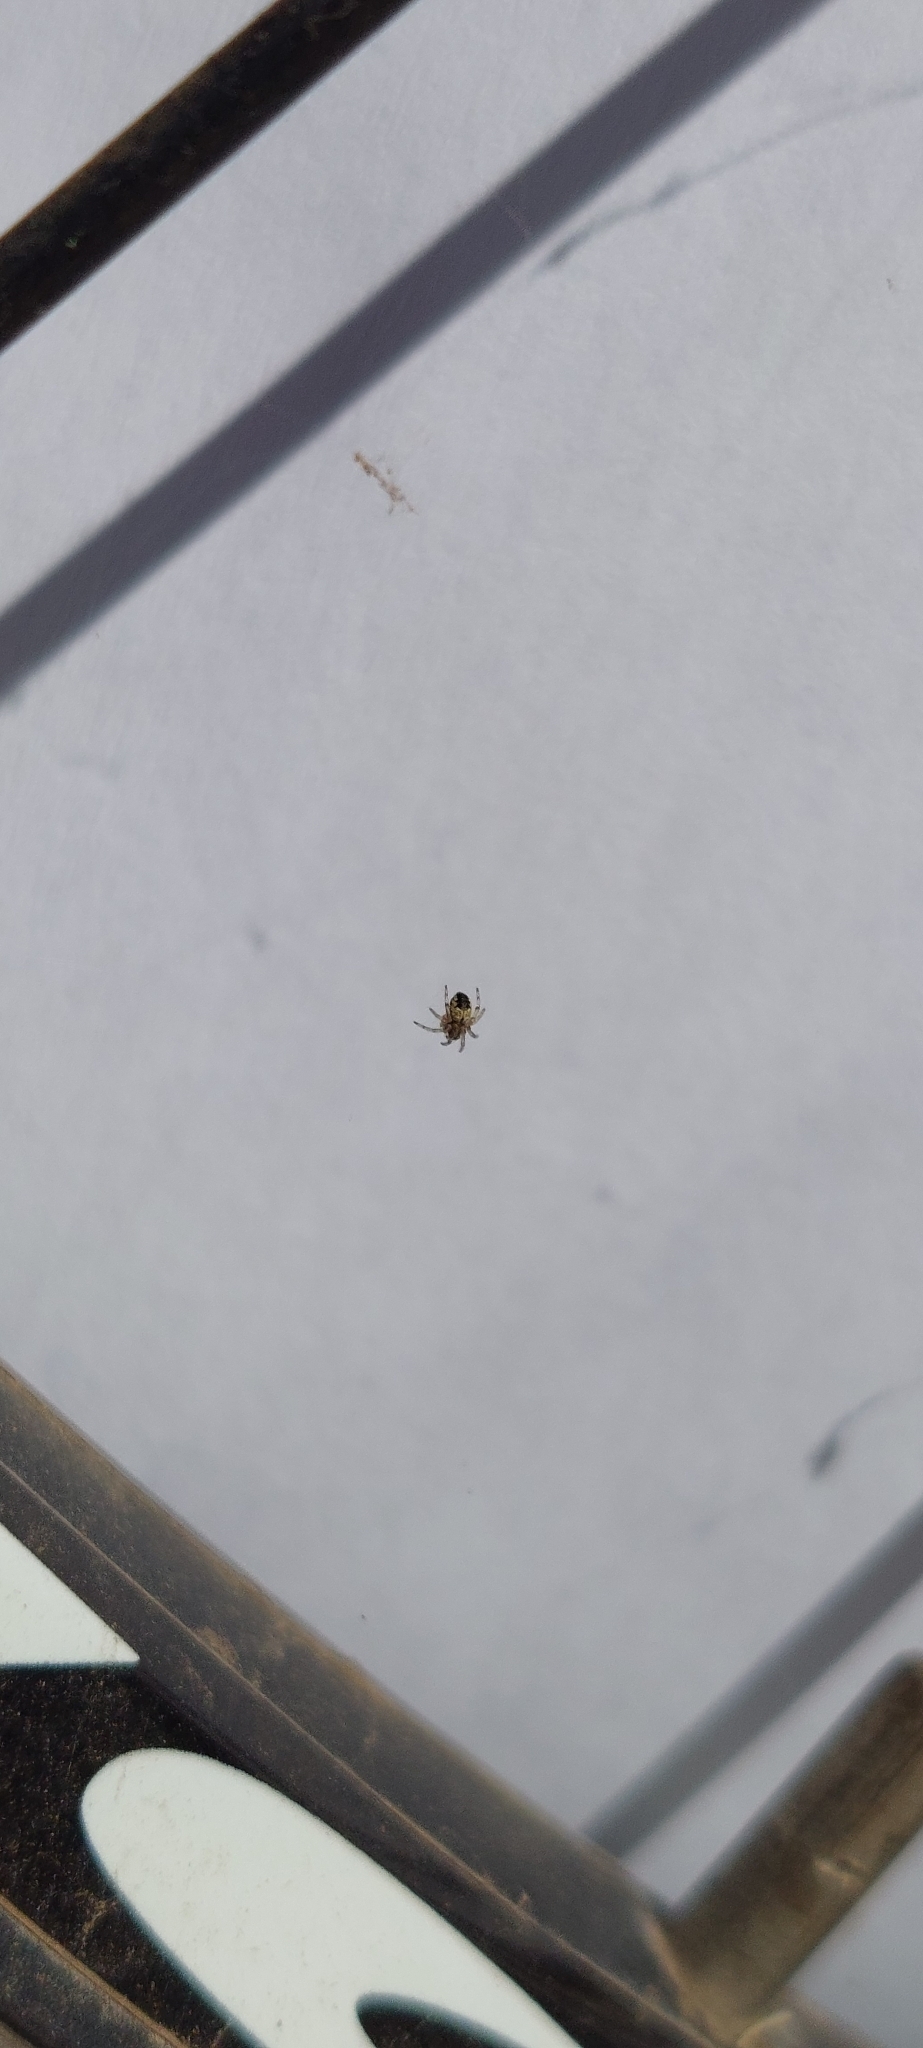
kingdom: Animalia
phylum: Arthropoda
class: Arachnida
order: Araneae
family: Araneidae
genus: Metepeira
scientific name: Metepeira
